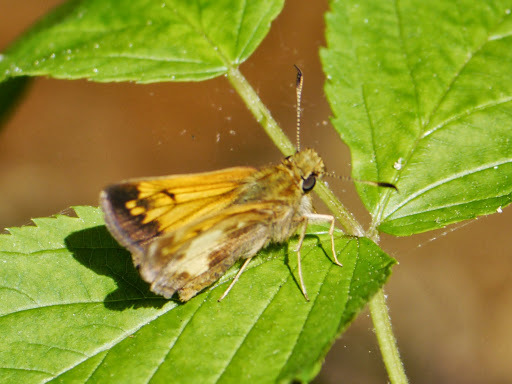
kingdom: Animalia
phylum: Arthropoda
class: Insecta
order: Lepidoptera
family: Hesperiidae
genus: Lon
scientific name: Lon hobomok
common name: Hobomok skipper
